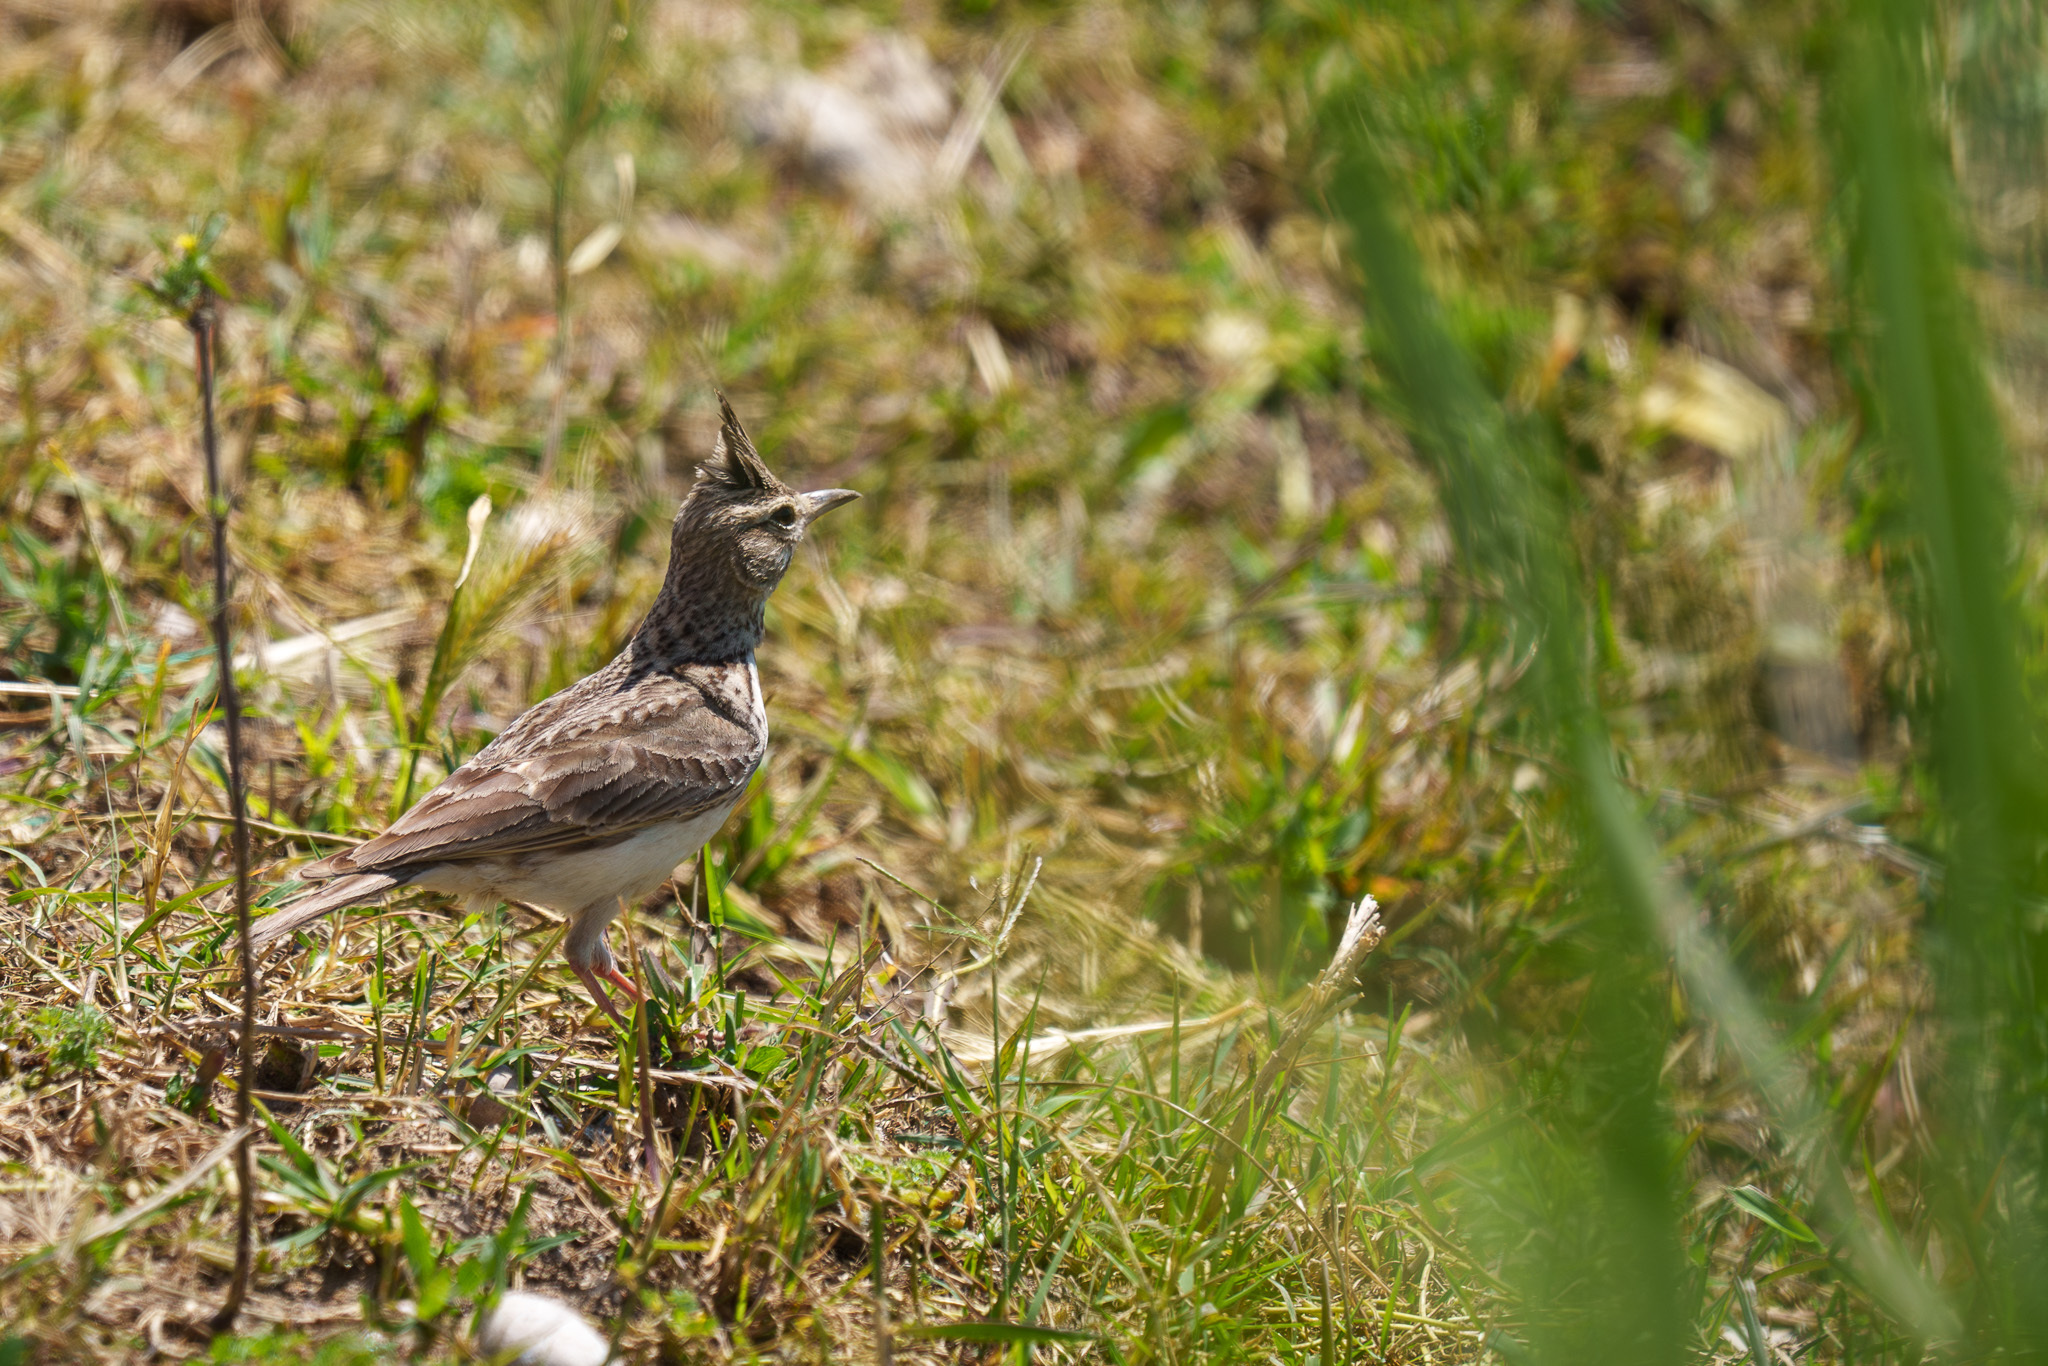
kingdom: Animalia
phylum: Chordata
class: Aves
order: Passeriformes
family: Alaudidae
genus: Galerida
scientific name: Galerida cristata
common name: Crested lark
